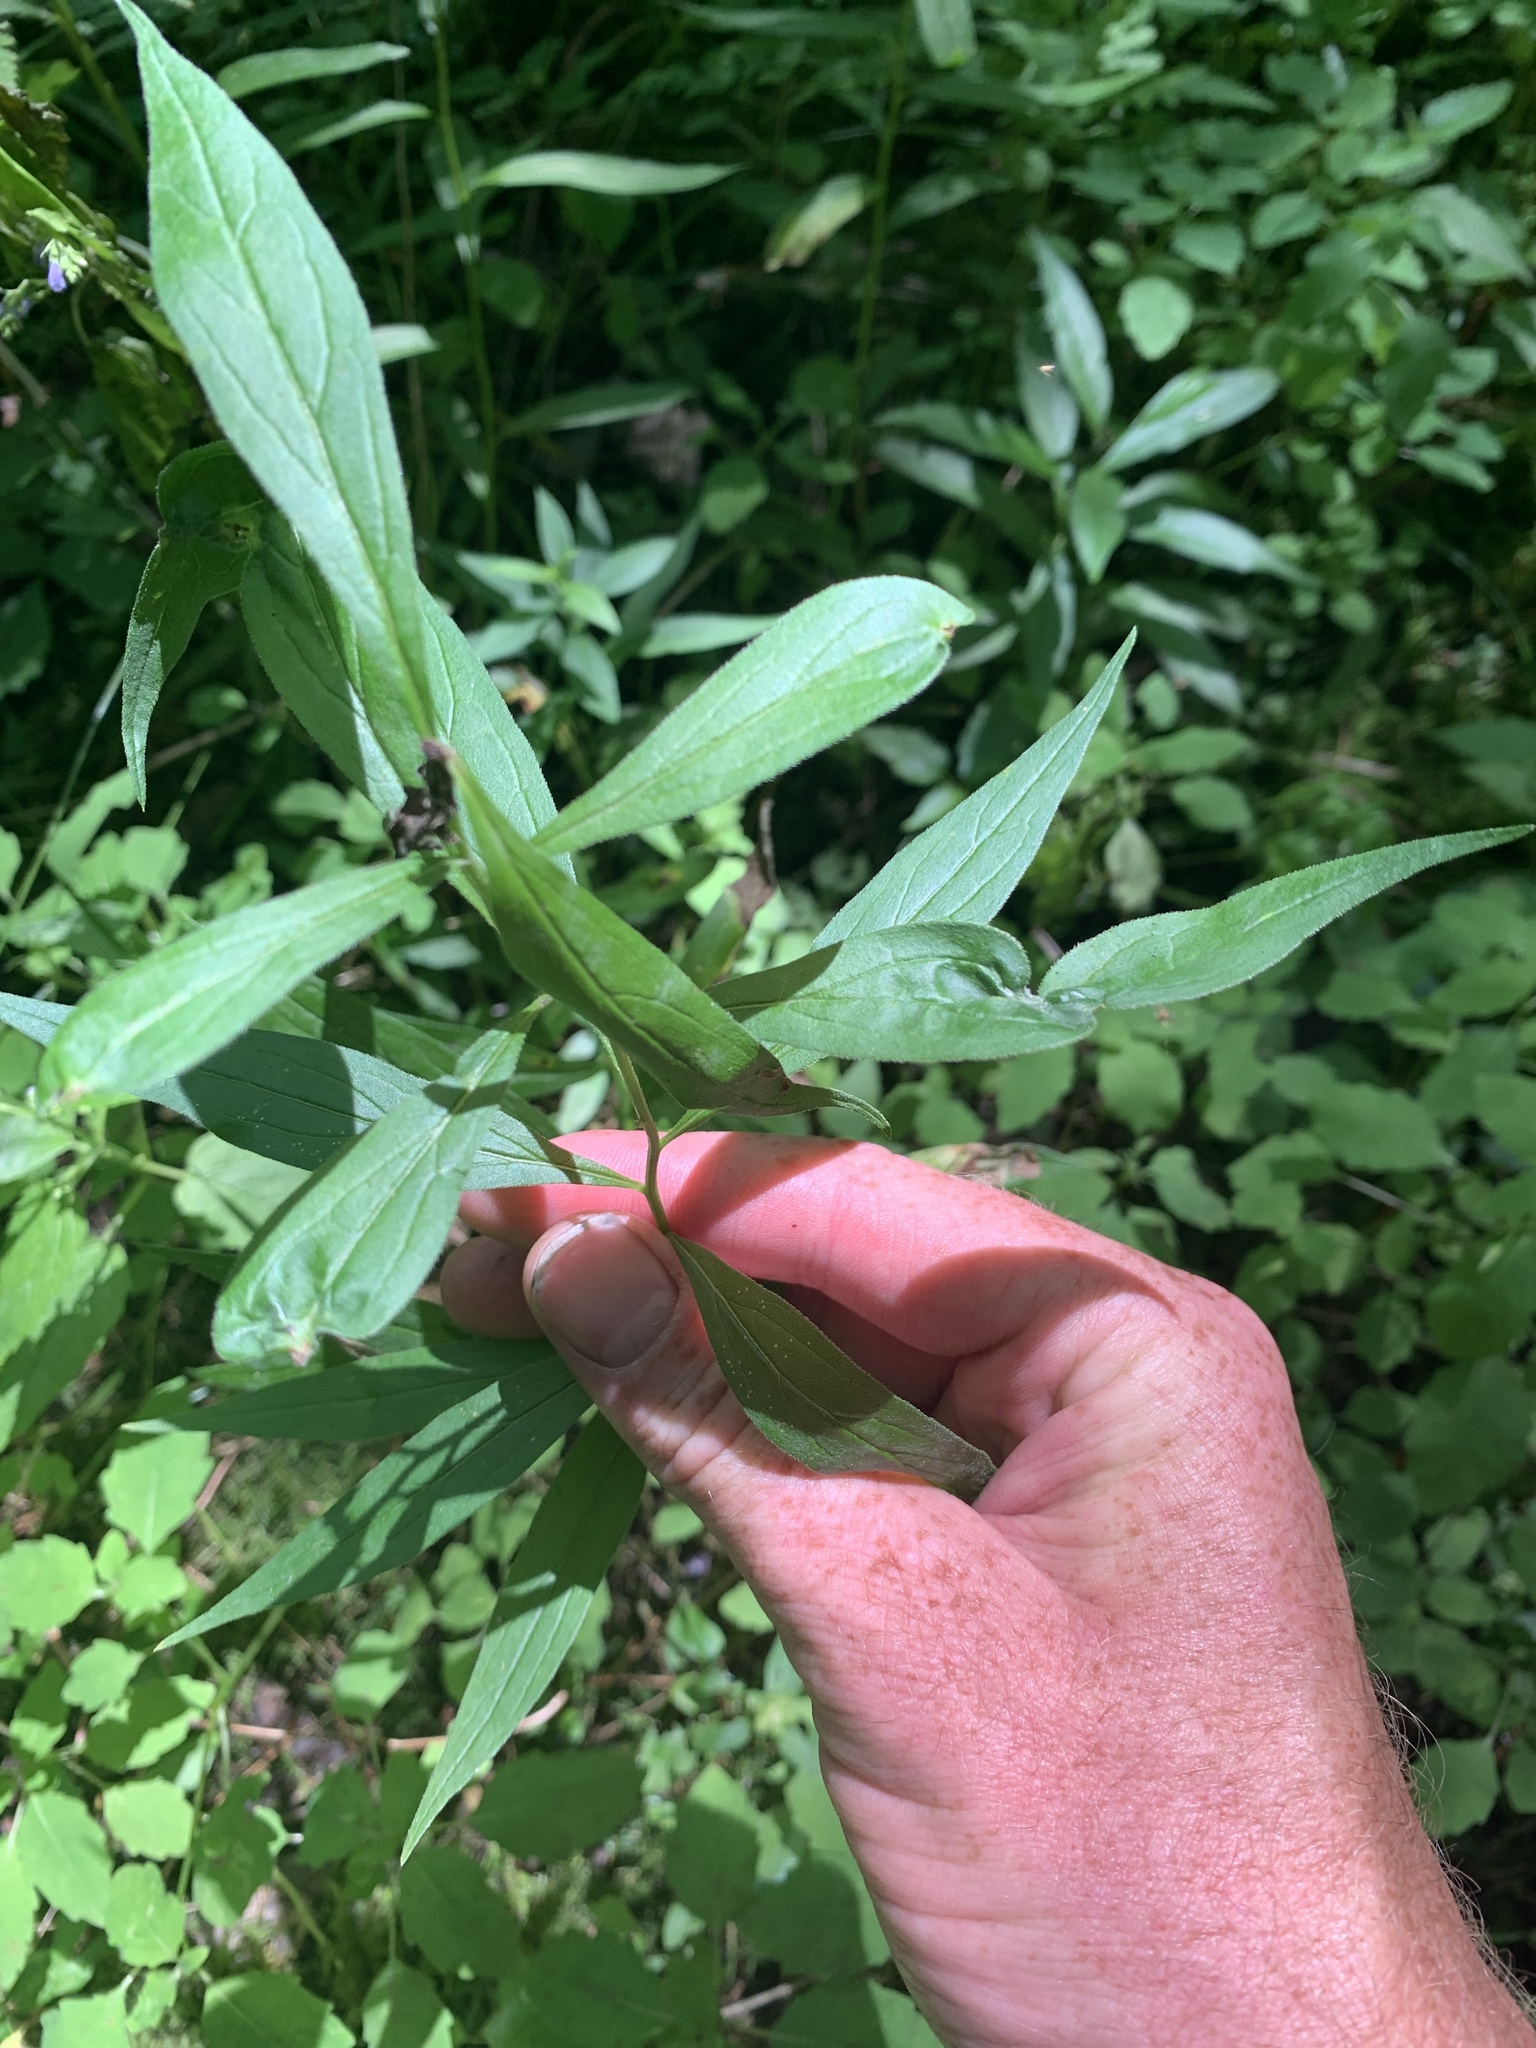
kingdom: Plantae
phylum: Tracheophyta
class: Magnoliopsida
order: Asterales
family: Asteraceae
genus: Doellingeria
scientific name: Doellingeria umbellata
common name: Flat-top white aster
